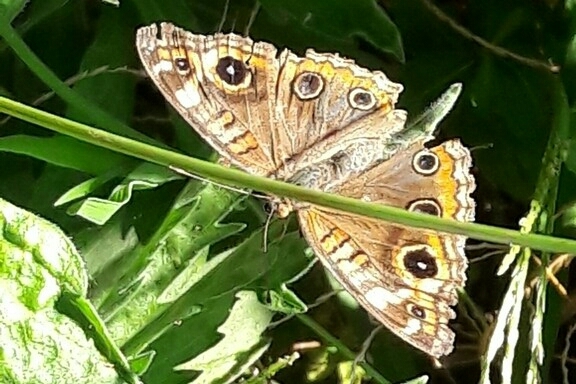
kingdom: Animalia
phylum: Arthropoda
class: Insecta
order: Lepidoptera
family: Nymphalidae
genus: Junonia
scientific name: Junonia evarete
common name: Black mangrove buckeye
